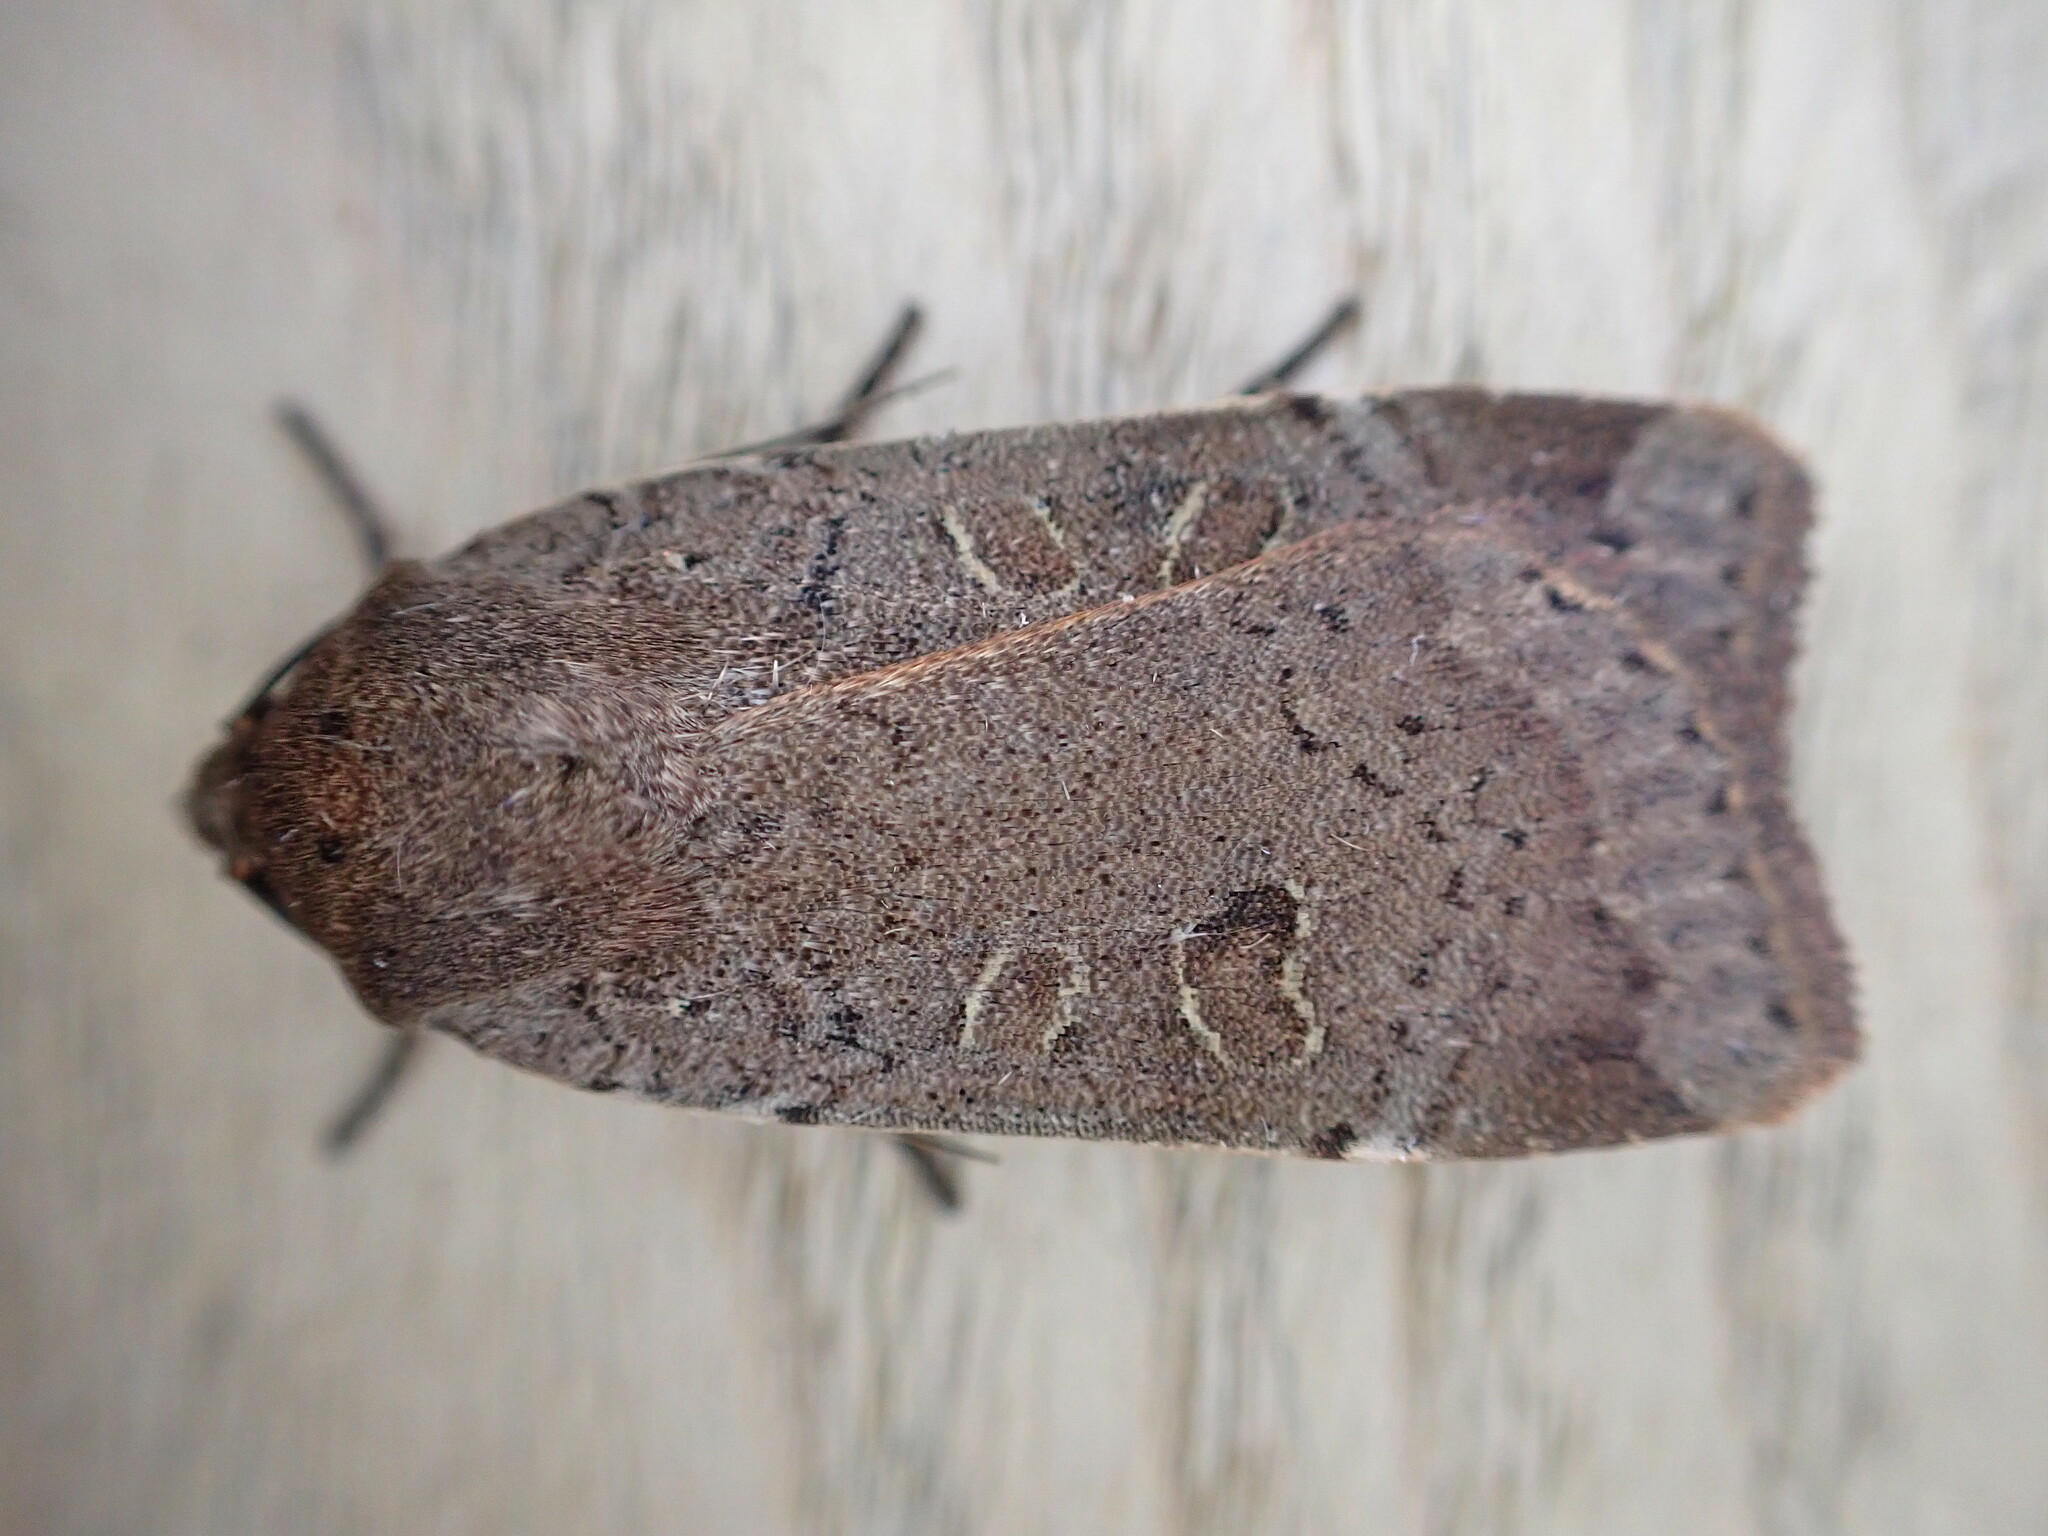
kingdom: Animalia
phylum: Arthropoda
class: Insecta
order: Lepidoptera
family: Noctuidae
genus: Noctua
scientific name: Noctua comes
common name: Lesser yellow underwing
